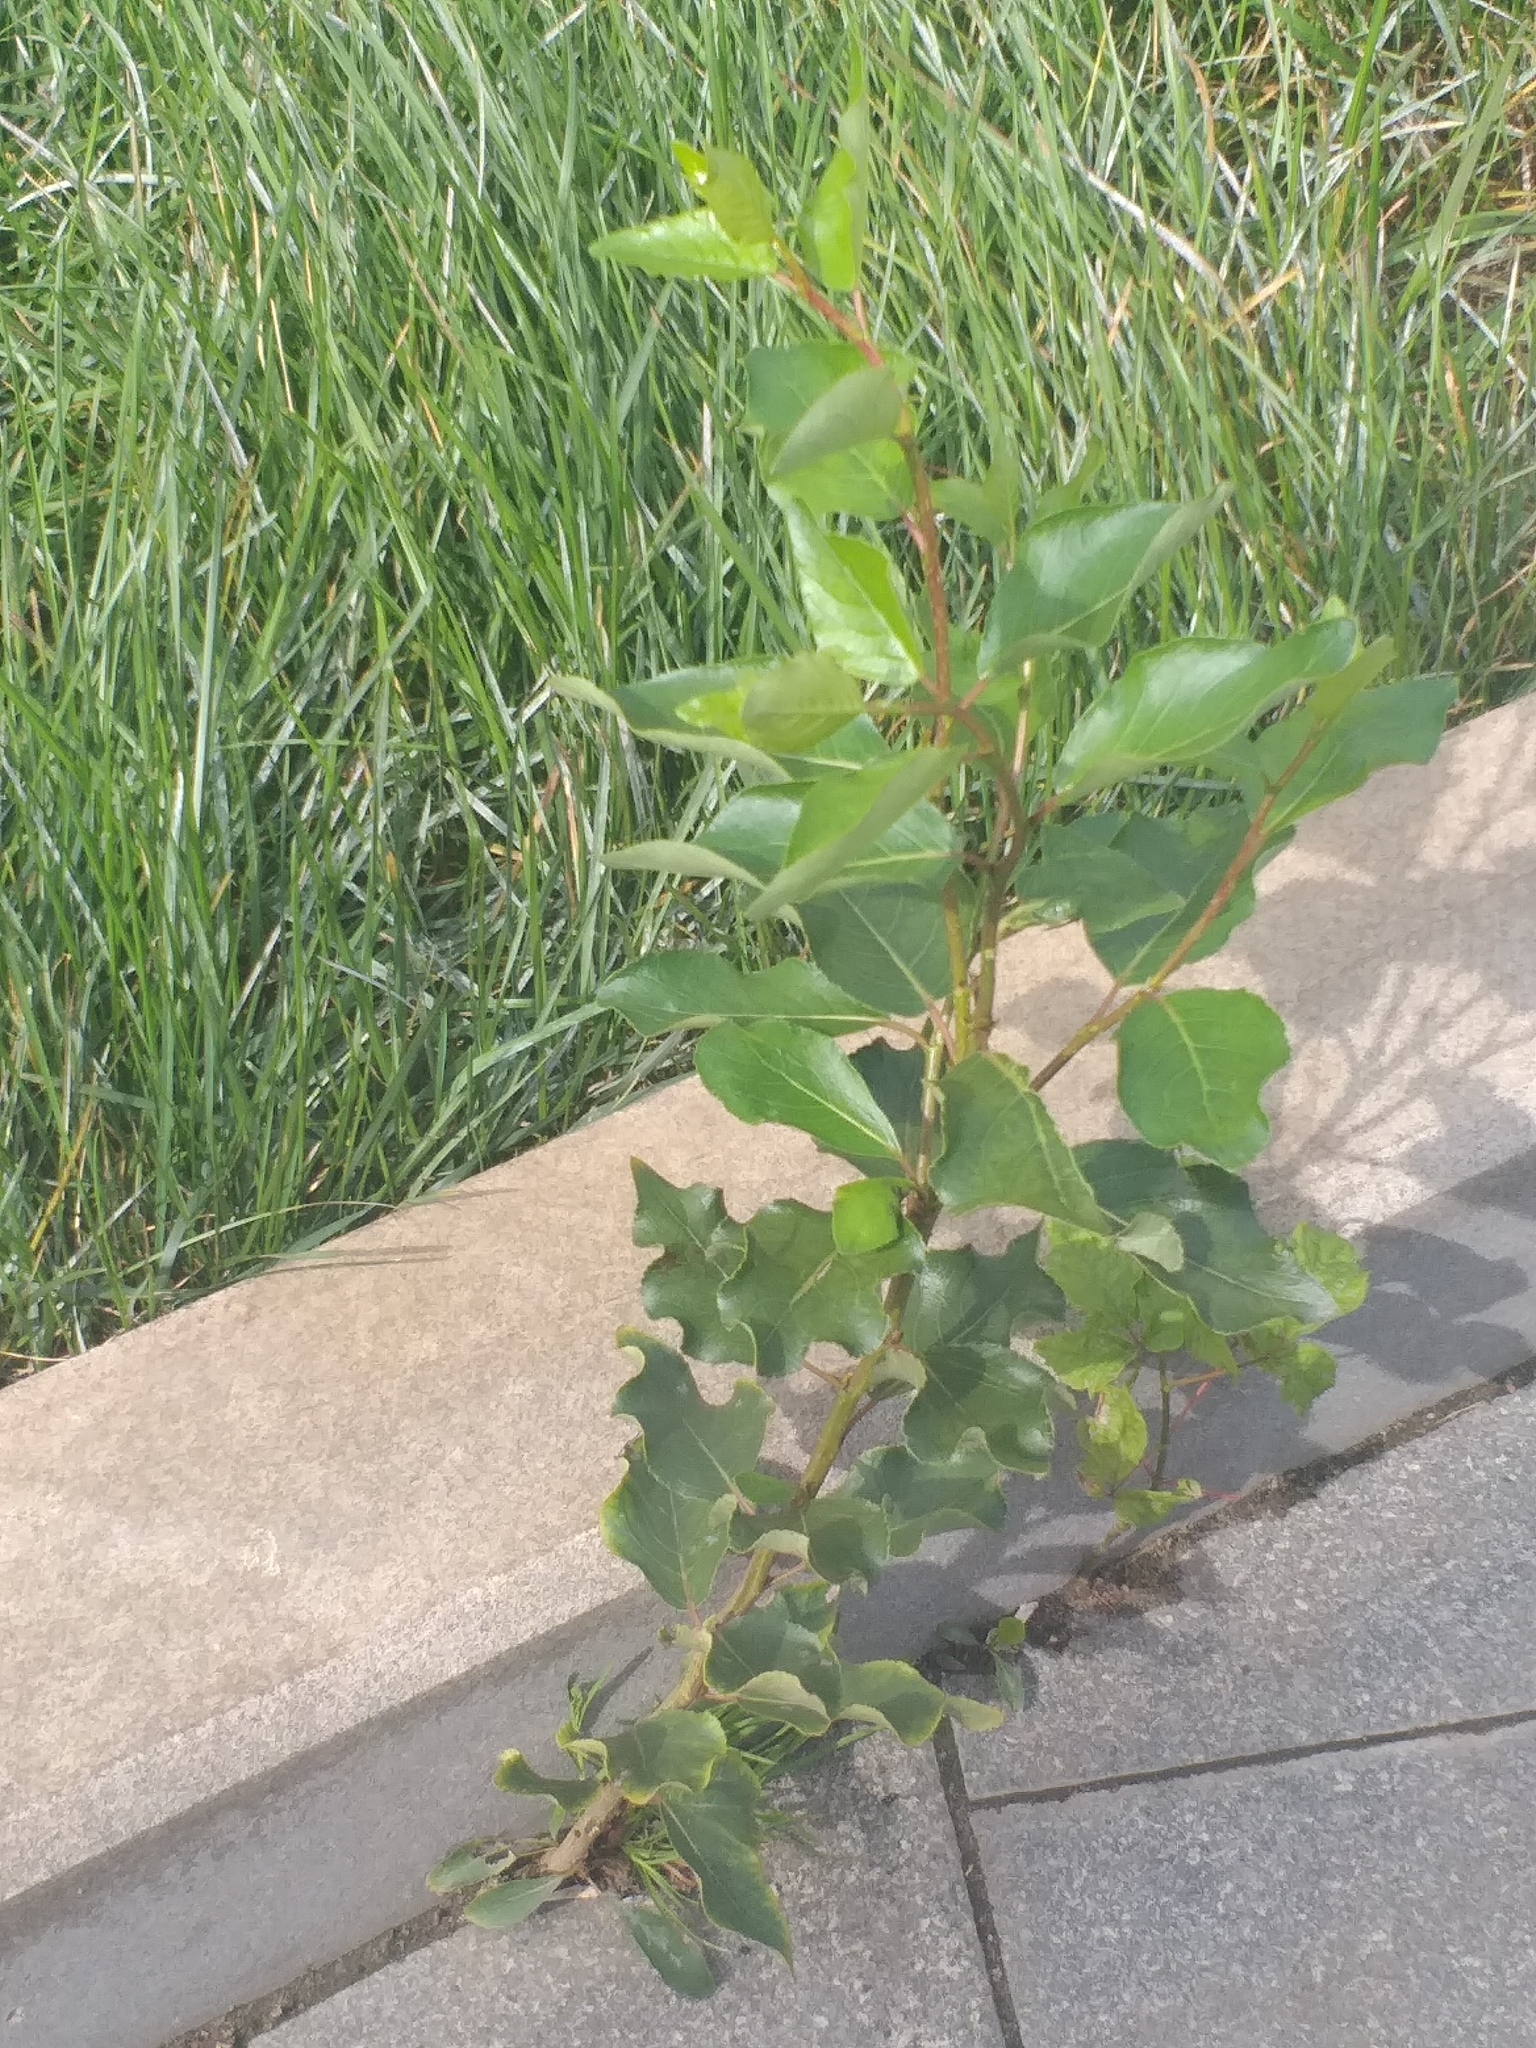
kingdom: Plantae
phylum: Tracheophyta
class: Magnoliopsida
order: Malpighiales
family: Salicaceae
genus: Populus
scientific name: Populus
